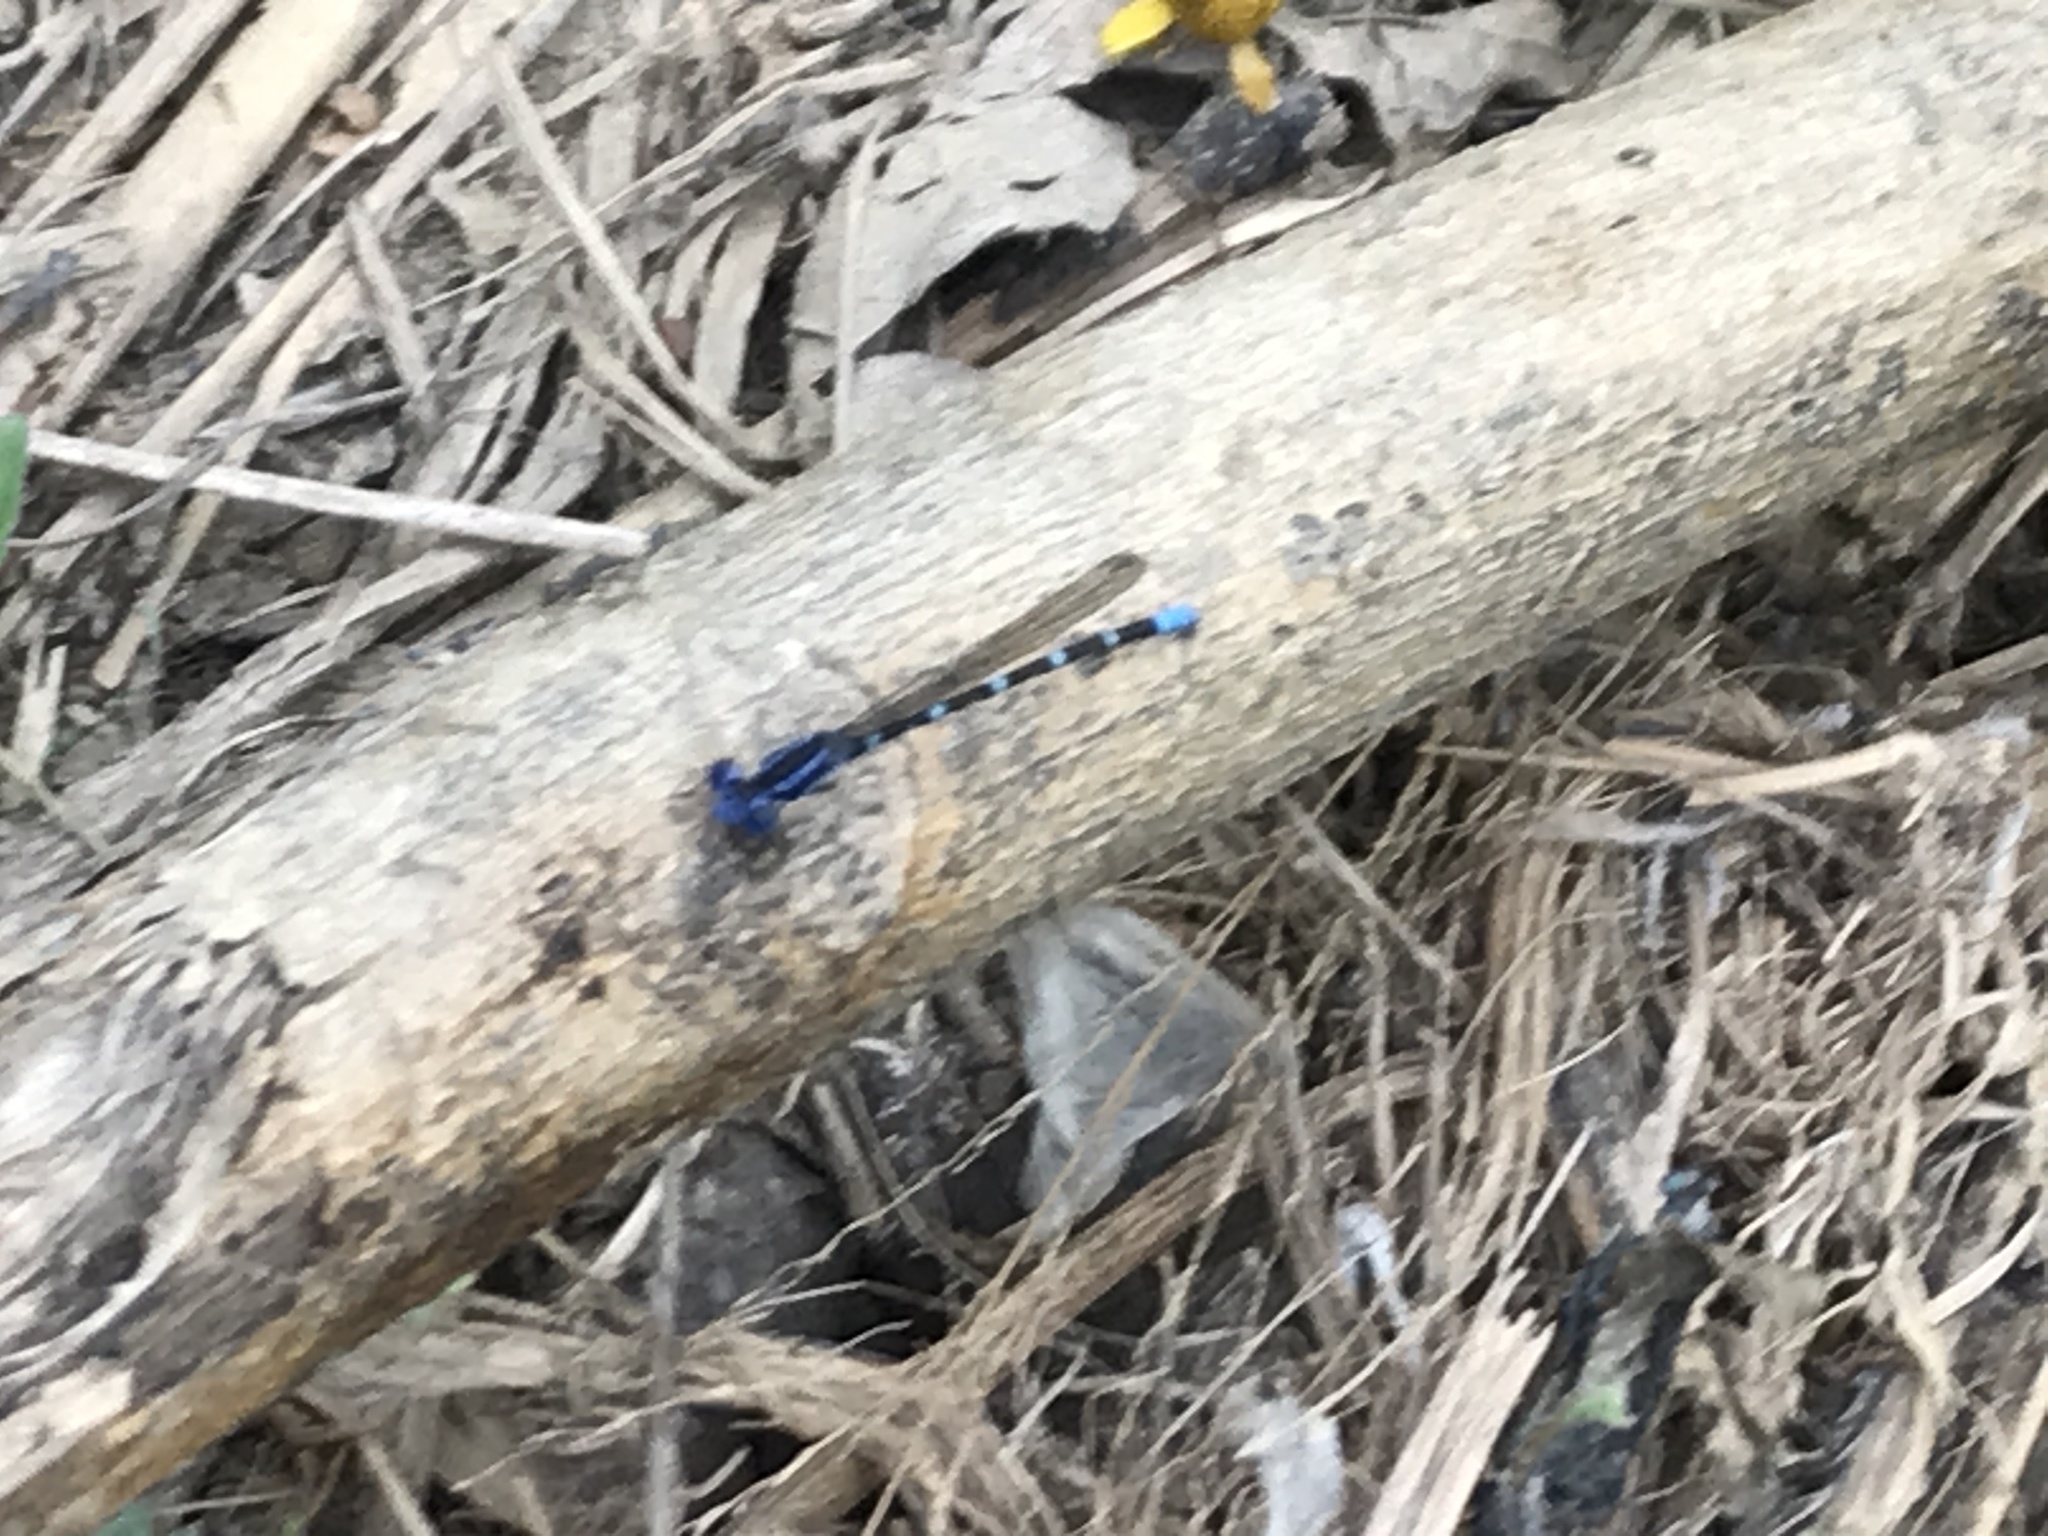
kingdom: Animalia
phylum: Arthropoda
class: Insecta
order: Odonata
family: Coenagrionidae
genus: Argia
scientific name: Argia sedula
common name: Blue-ringed dancer
